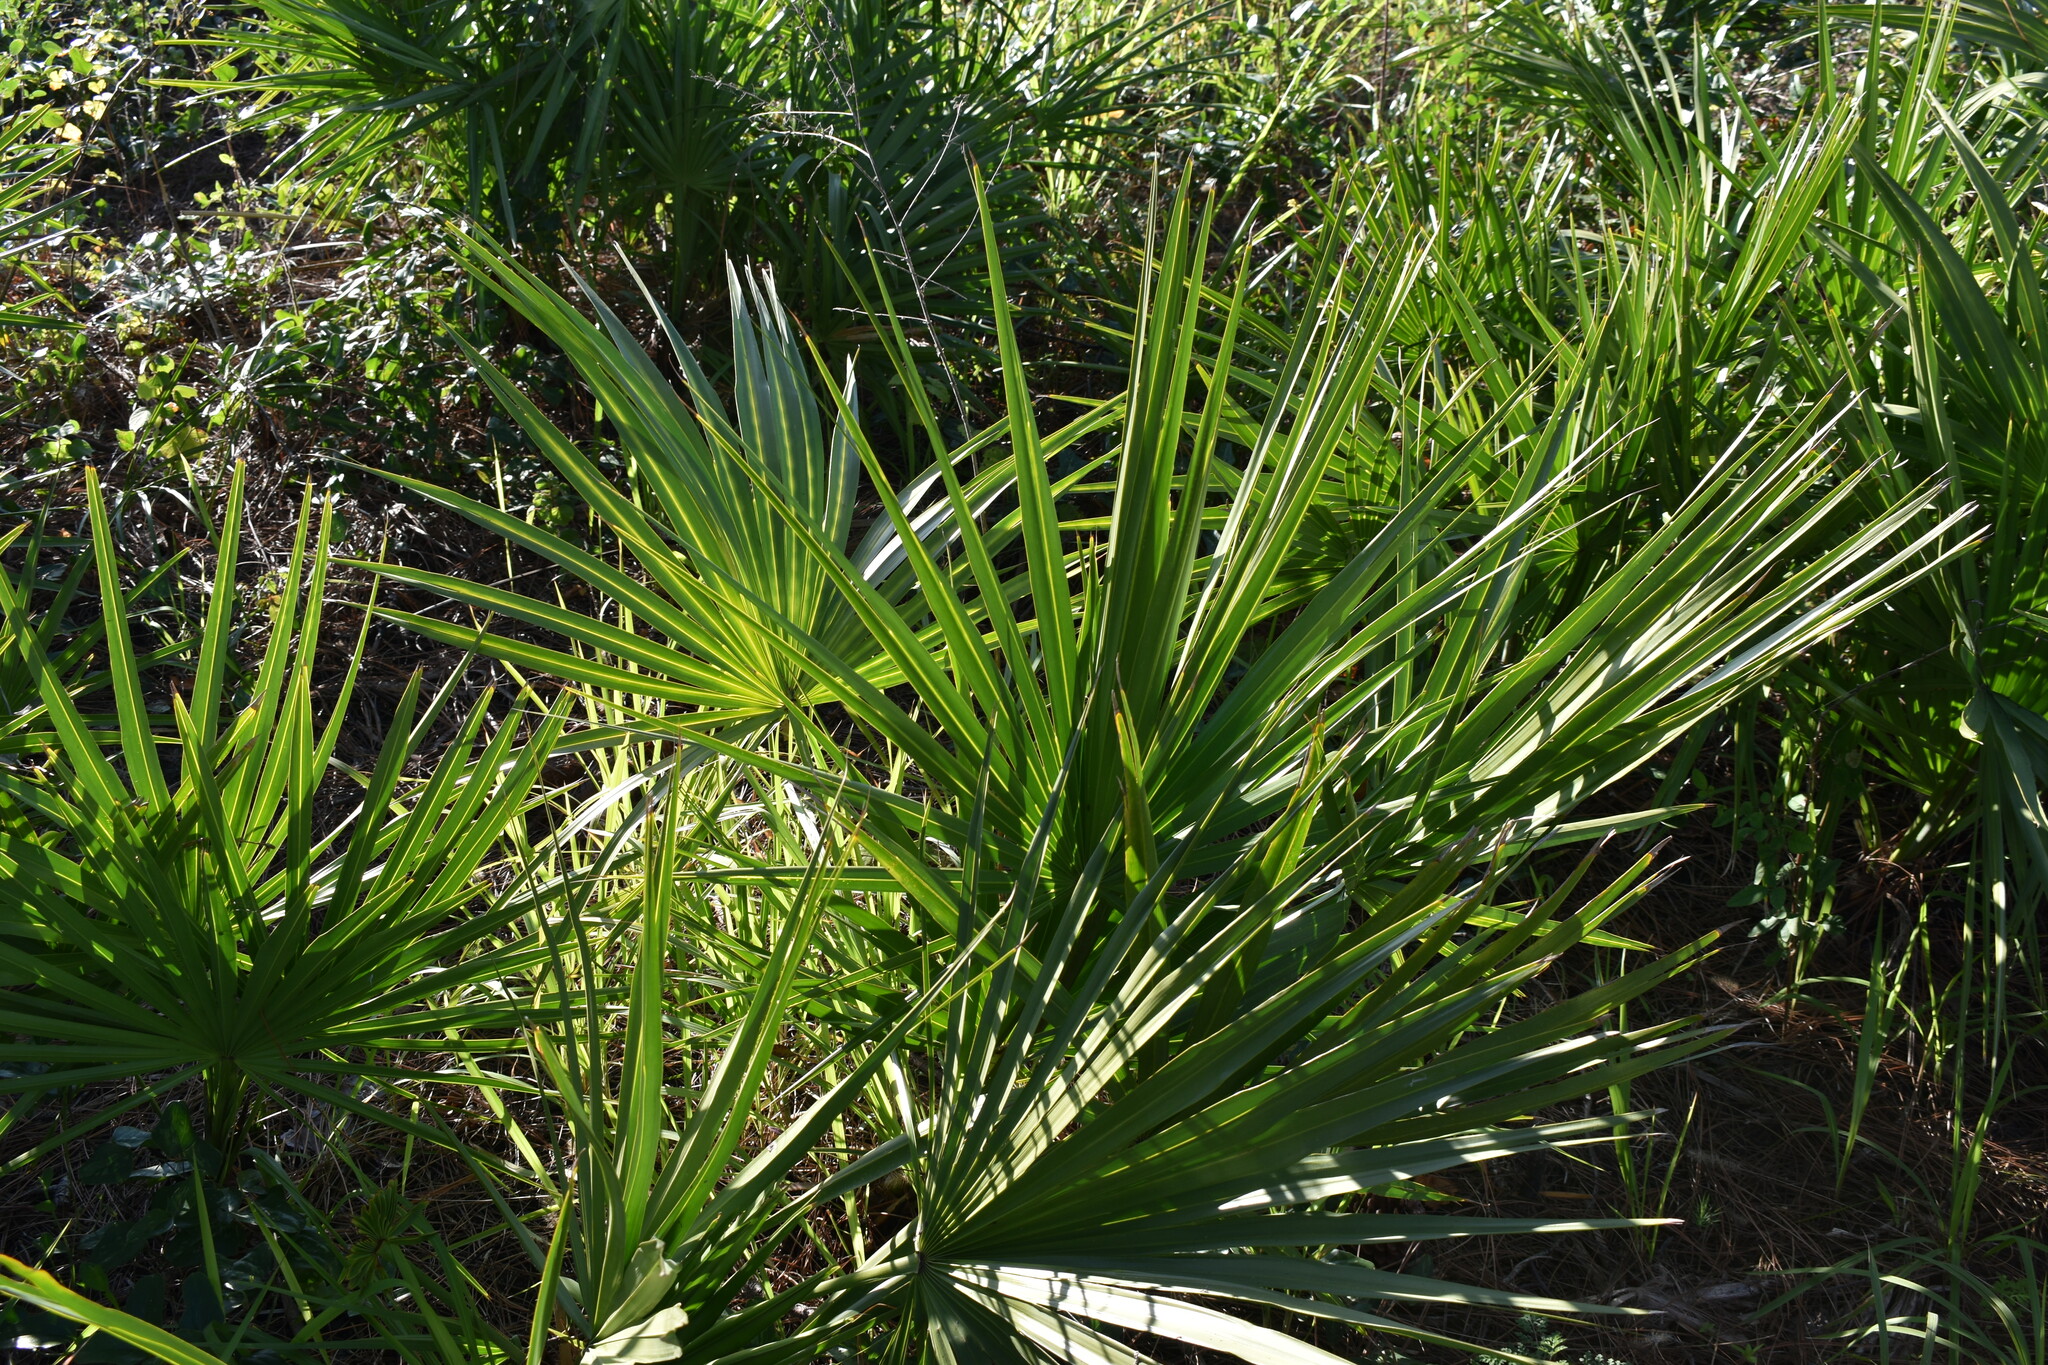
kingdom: Plantae
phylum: Tracheophyta
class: Liliopsida
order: Arecales
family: Arecaceae
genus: Serenoa
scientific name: Serenoa repens
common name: Saw-palmetto
